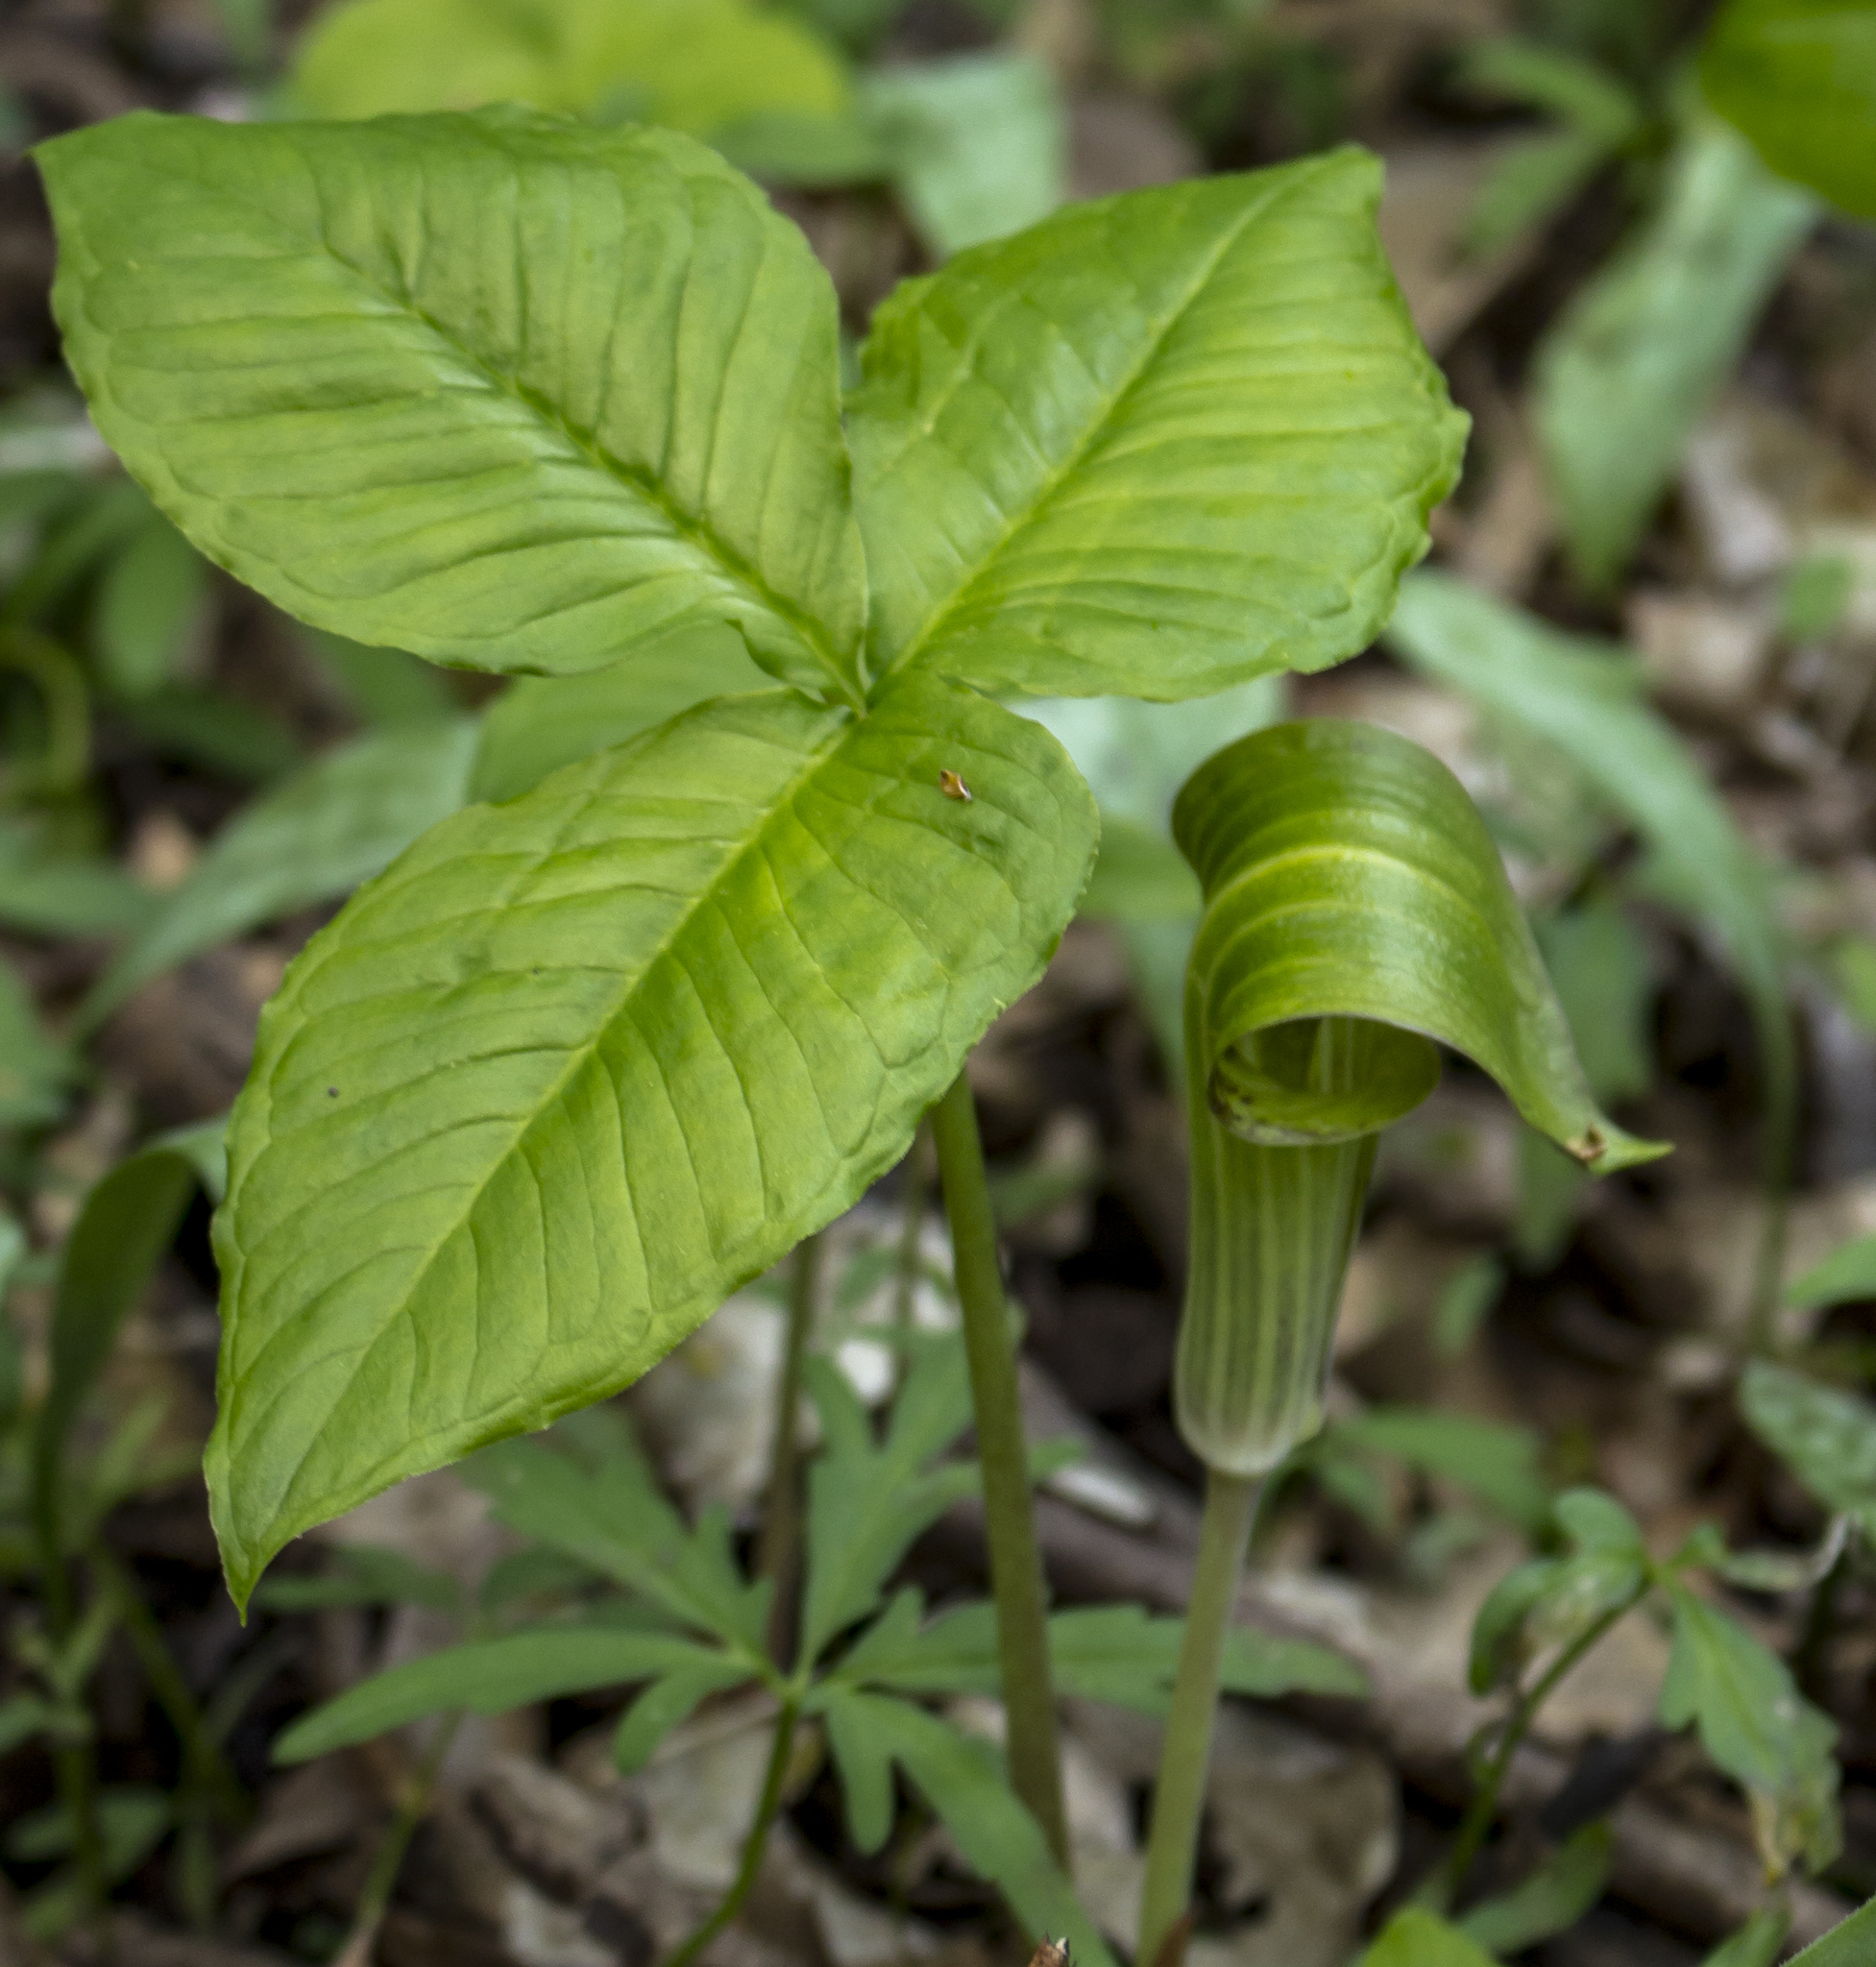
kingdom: Plantae
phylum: Tracheophyta
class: Liliopsida
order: Alismatales
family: Araceae
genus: Arisaema
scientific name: Arisaema triphyllum
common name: Jack-in-the-pulpit
